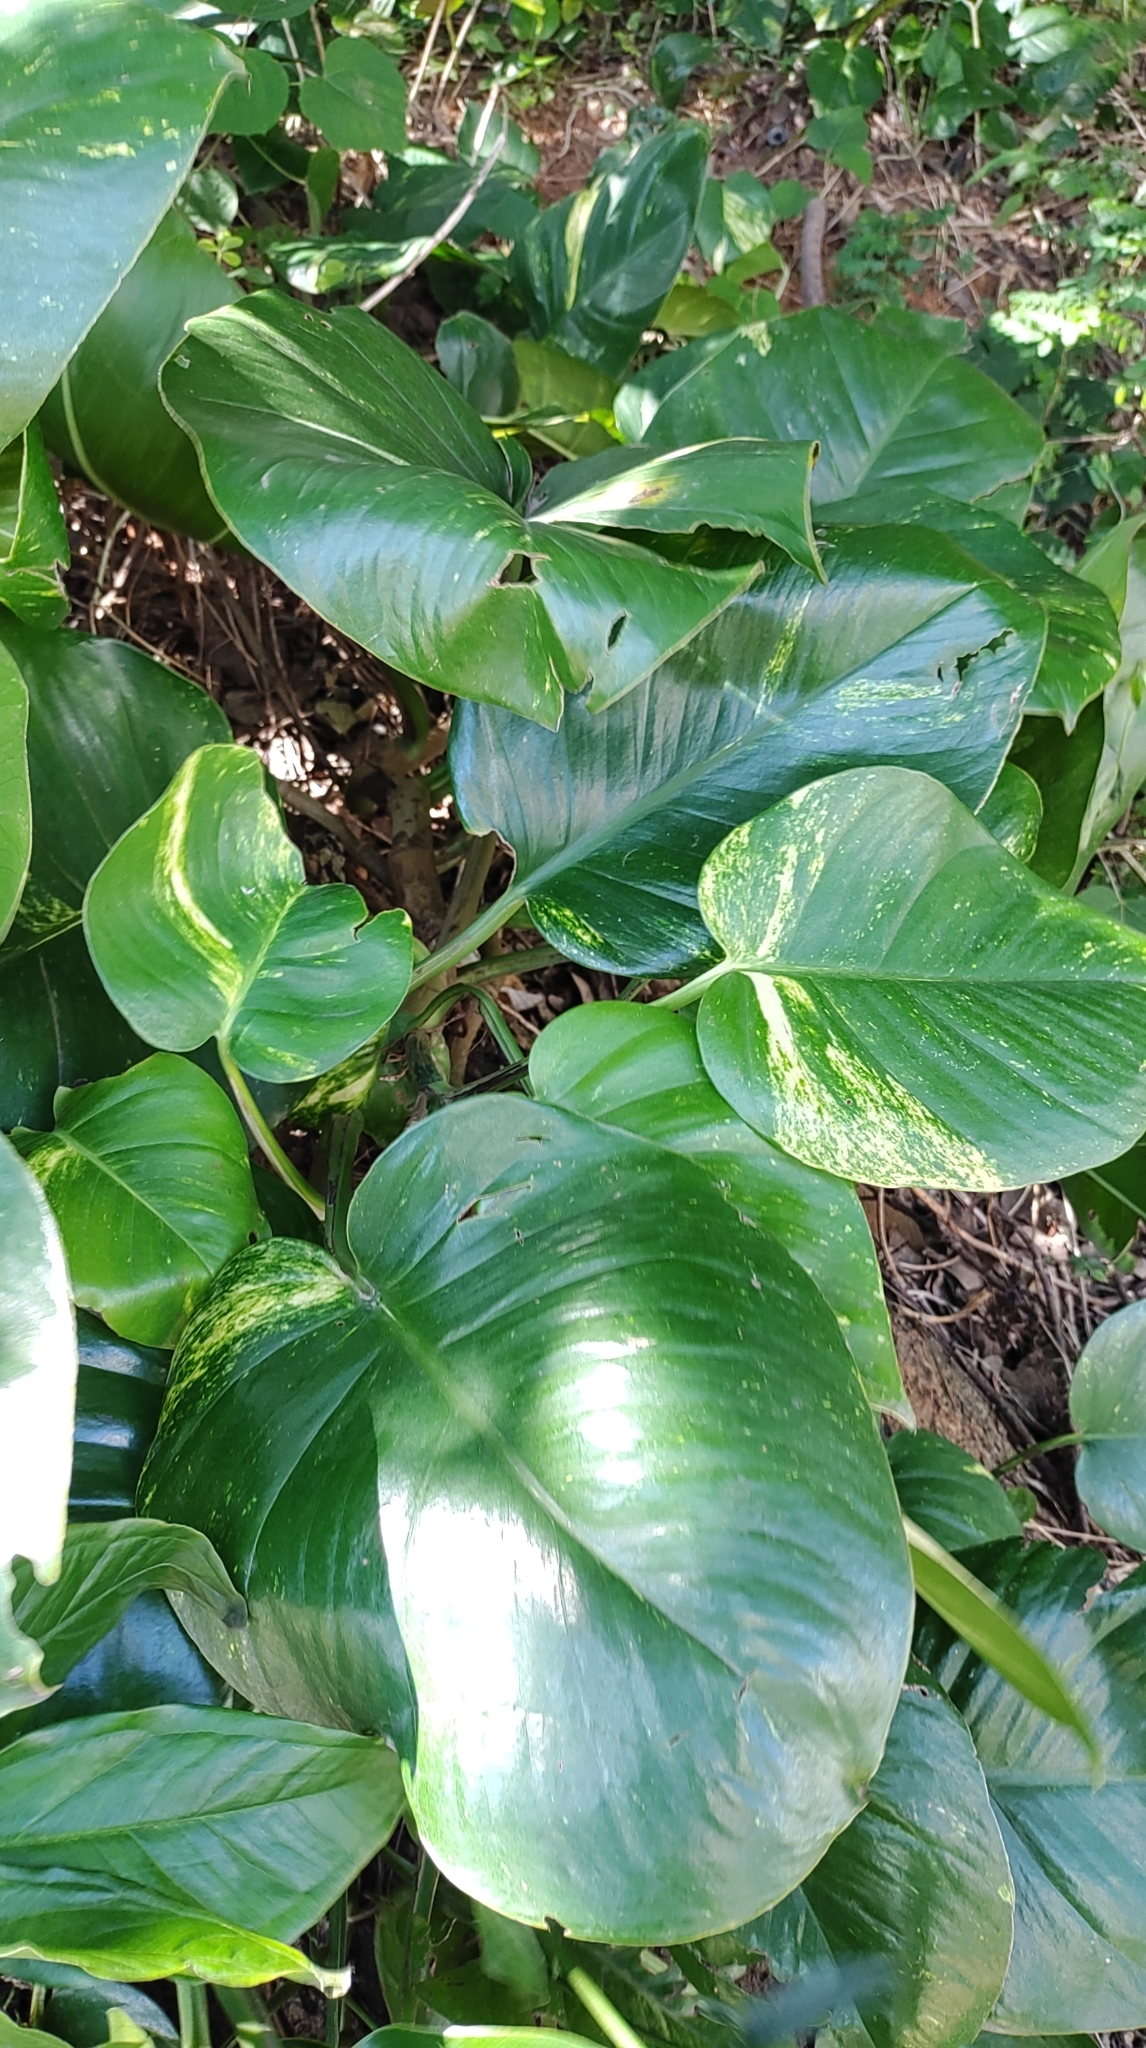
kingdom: Plantae
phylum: Tracheophyta
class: Liliopsida
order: Alismatales
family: Araceae
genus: Epipremnum
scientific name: Epipremnum aureum
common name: Golden hunter's-robe
